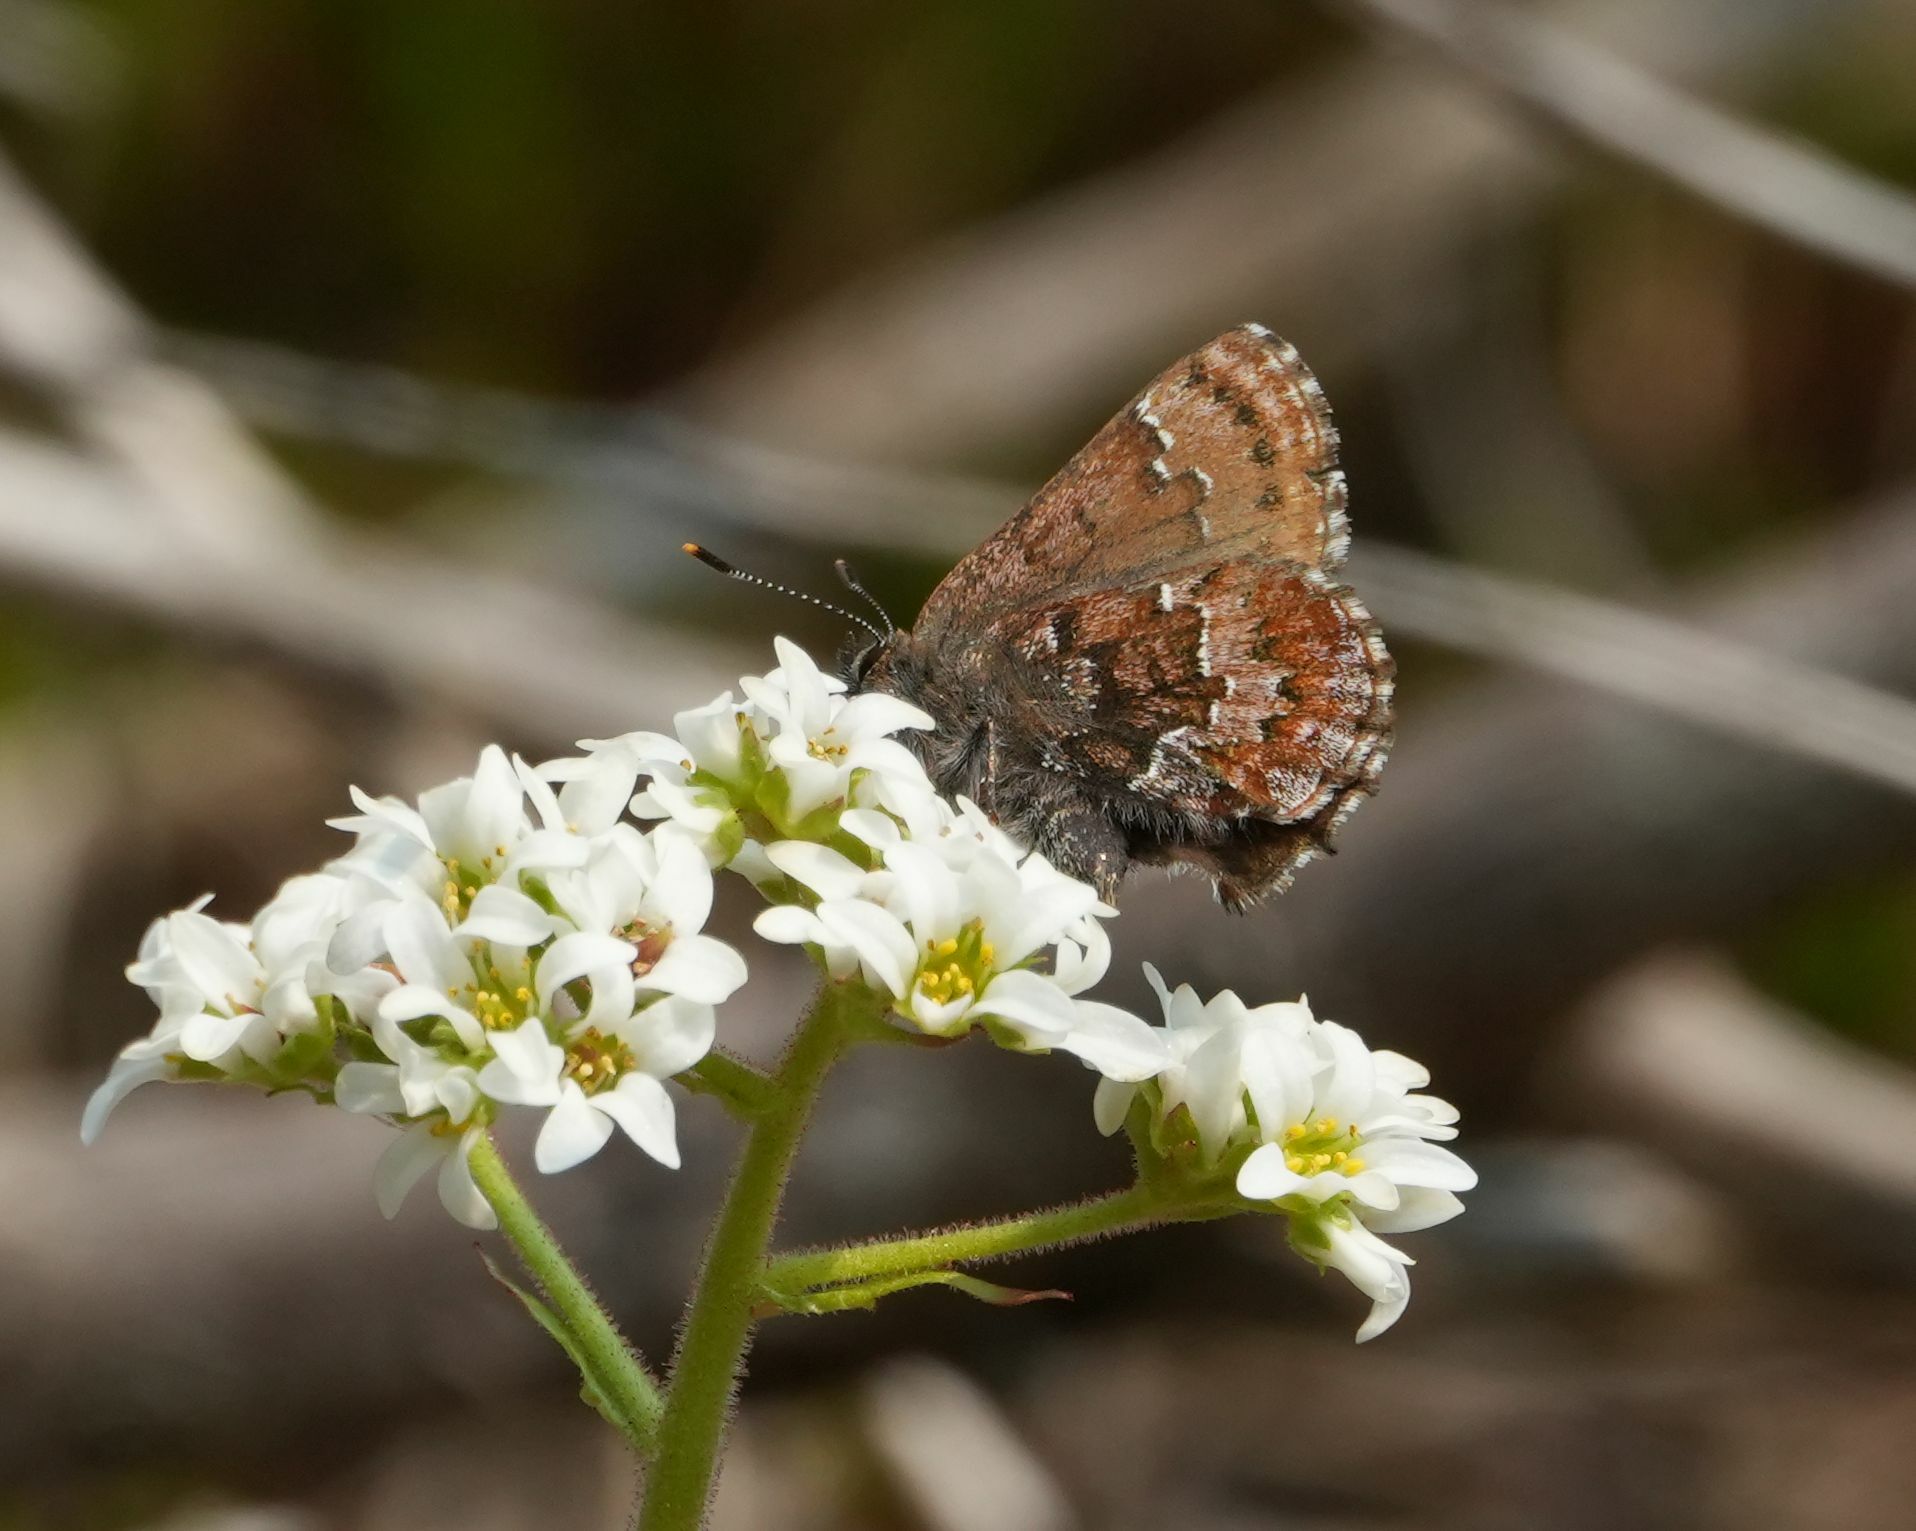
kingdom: Animalia
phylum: Arthropoda
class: Insecta
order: Lepidoptera
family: Lycaenidae
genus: Incisalia
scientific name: Incisalia niphon
